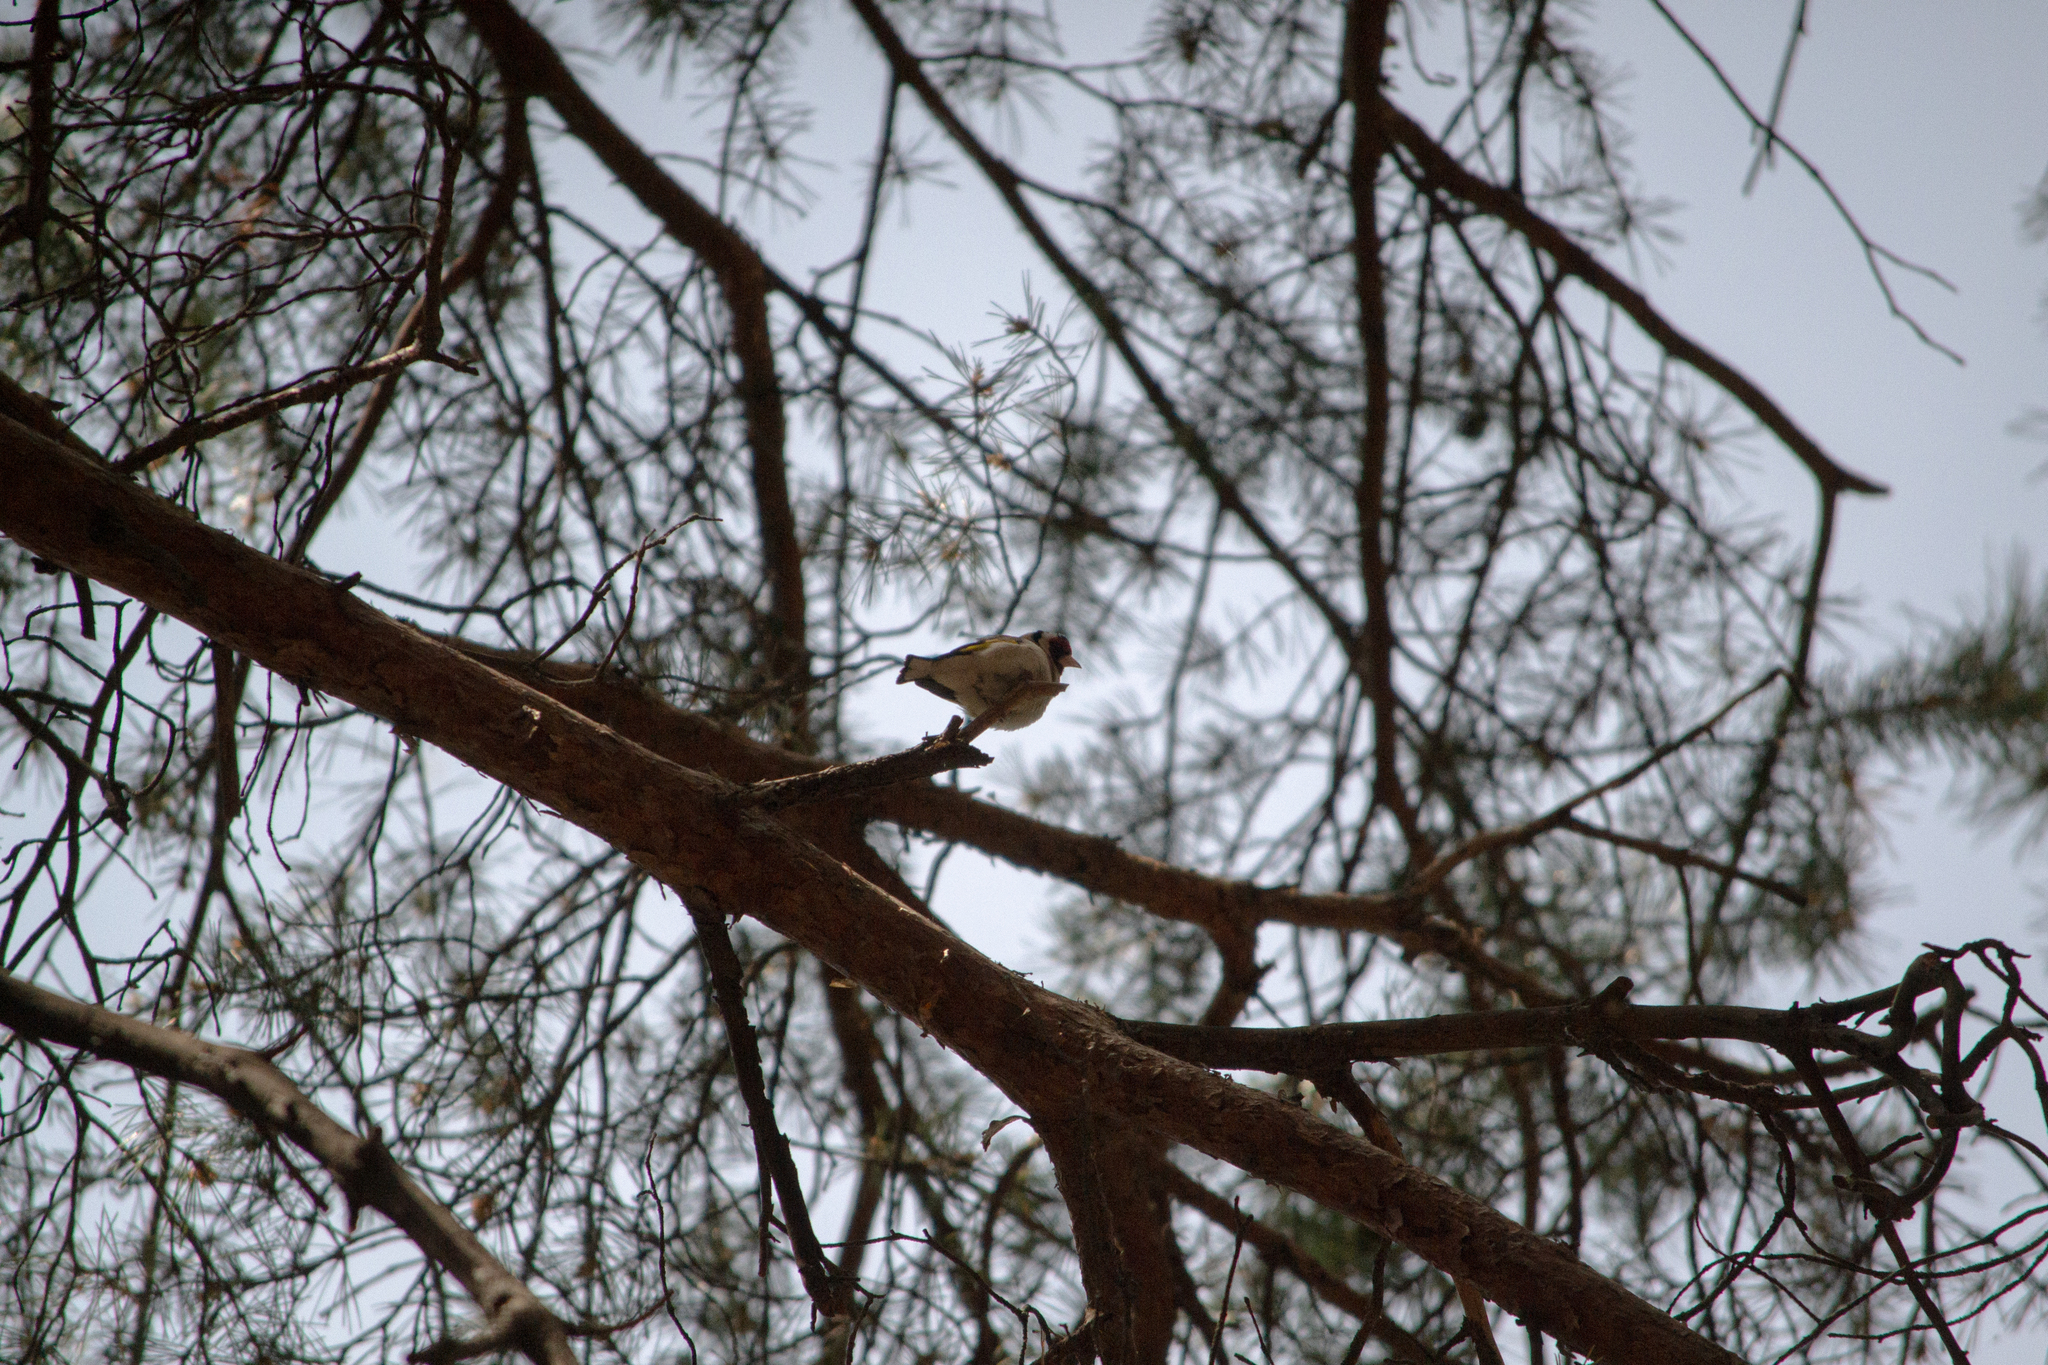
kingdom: Animalia
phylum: Chordata
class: Aves
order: Passeriformes
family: Fringillidae
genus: Carduelis
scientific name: Carduelis carduelis
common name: European goldfinch
